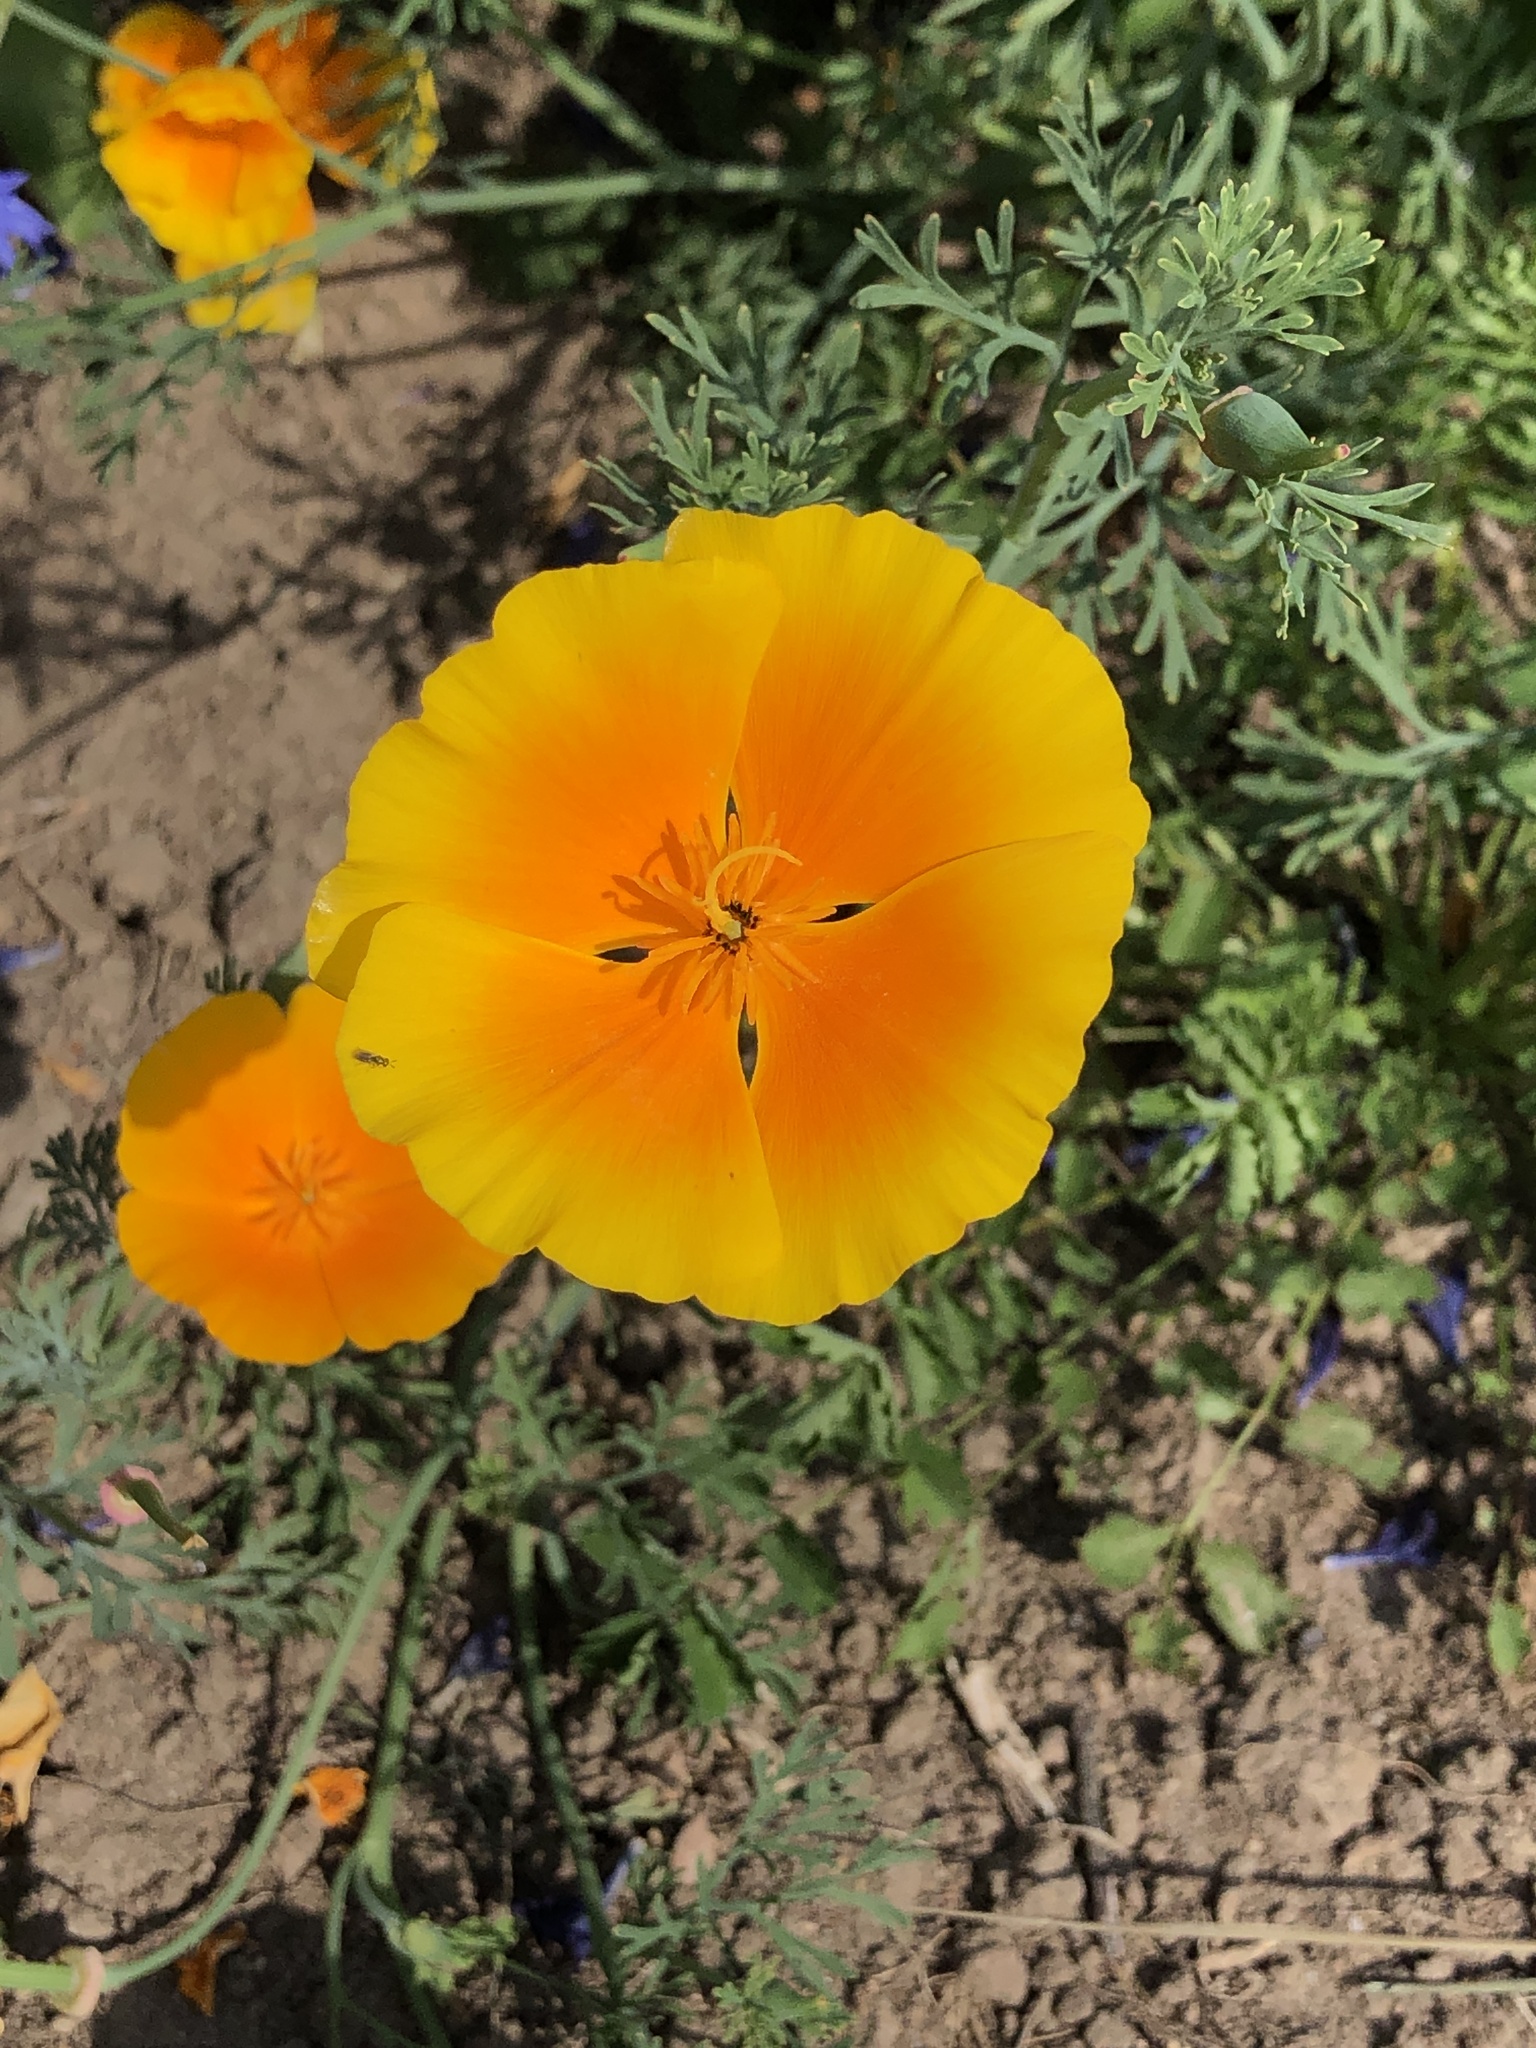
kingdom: Plantae
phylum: Tracheophyta
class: Magnoliopsida
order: Ranunculales
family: Papaveraceae
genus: Eschscholzia
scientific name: Eschscholzia californica
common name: California poppy
